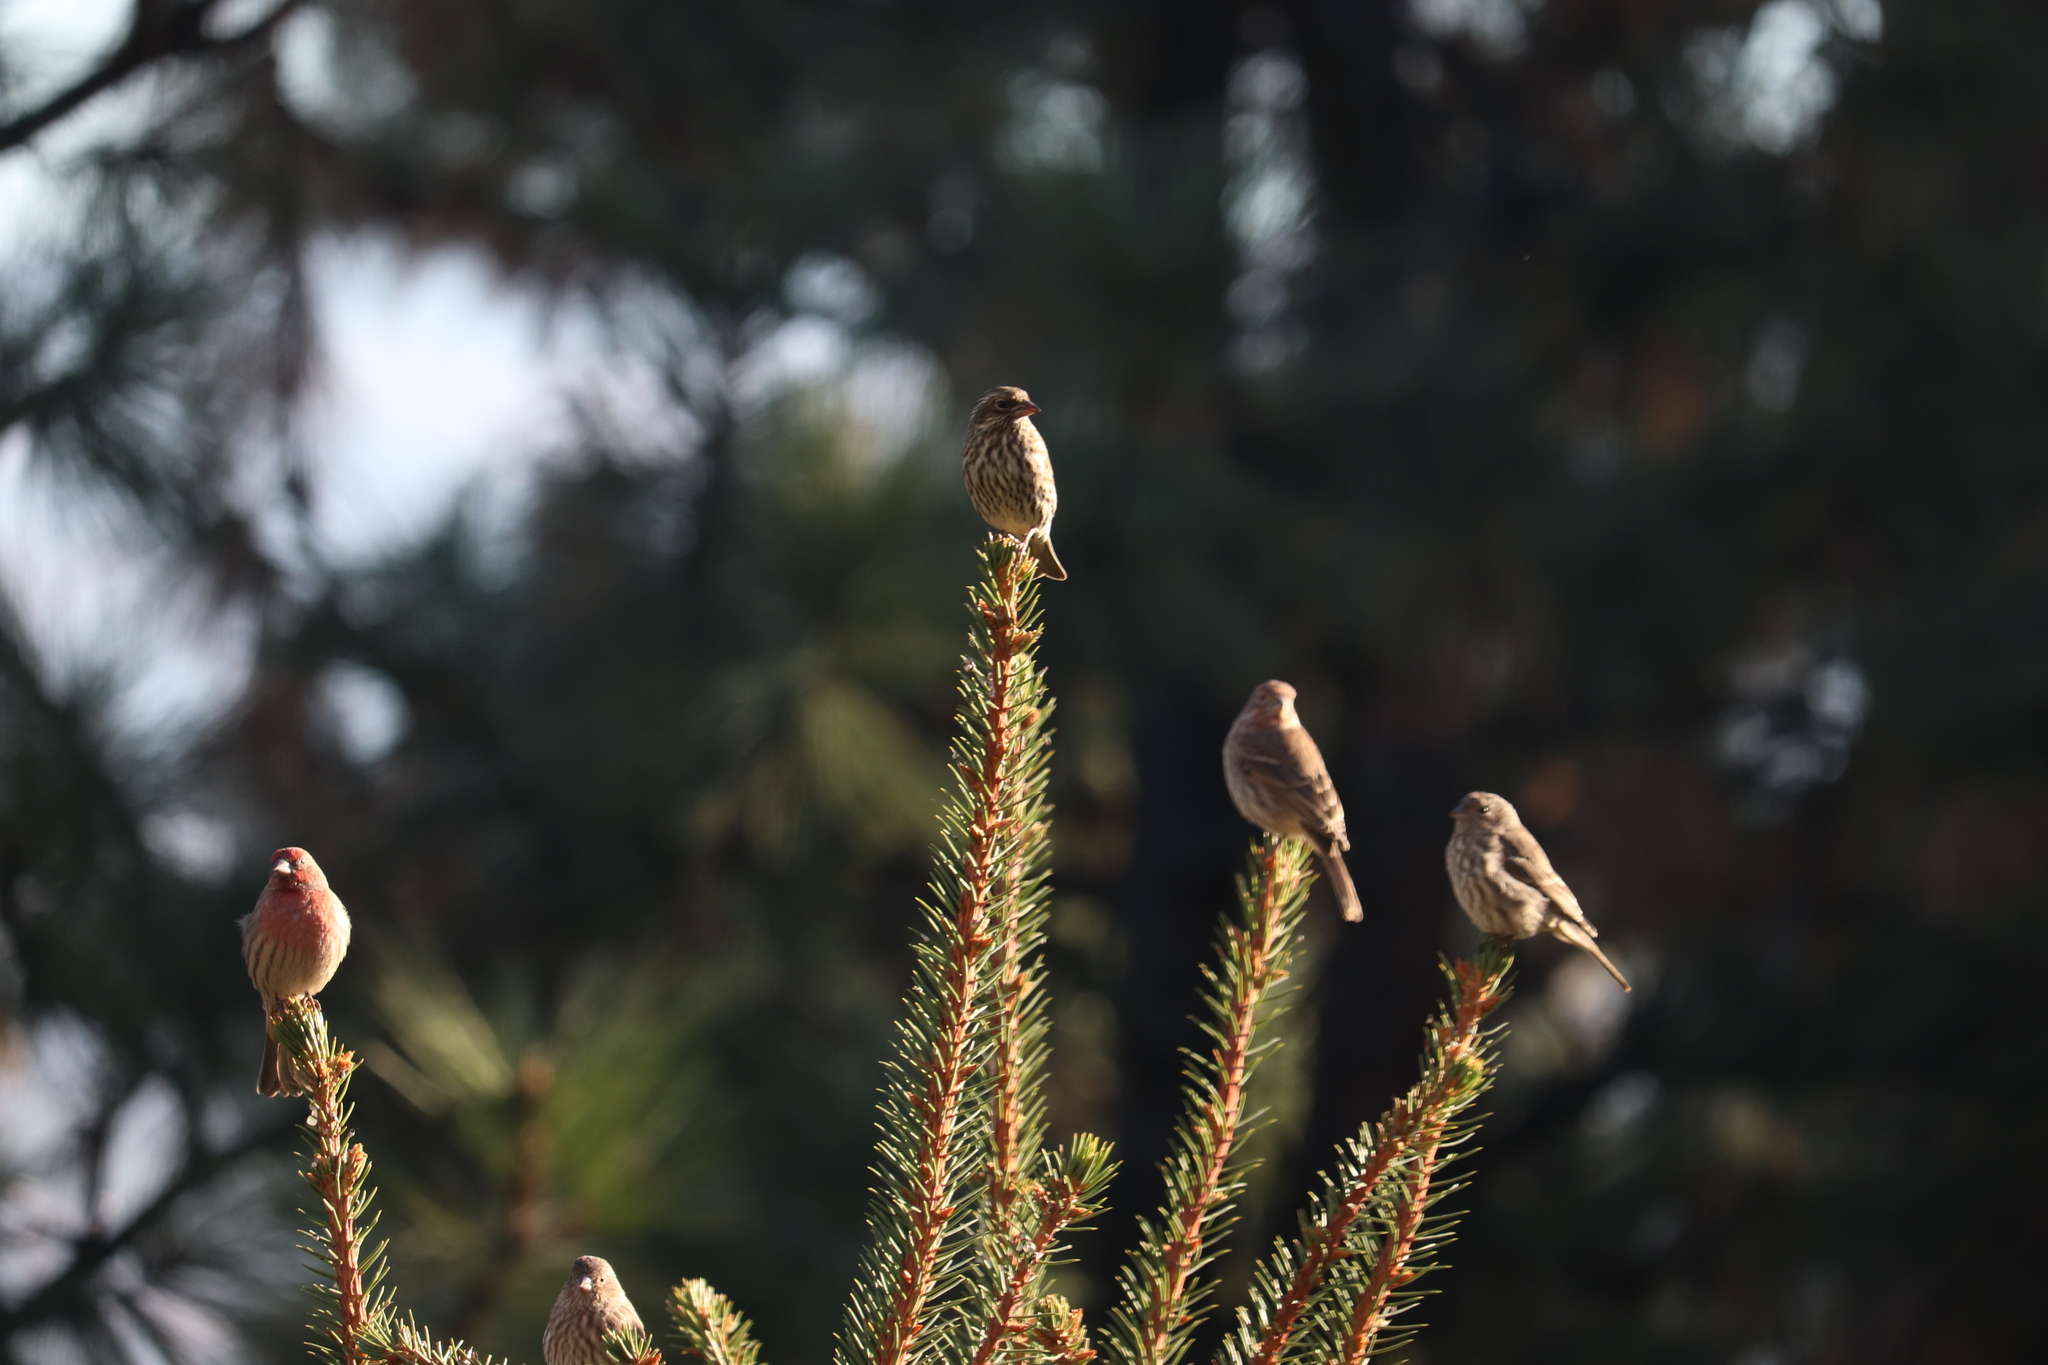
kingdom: Animalia
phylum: Chordata
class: Aves
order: Passeriformes
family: Fringillidae
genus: Haemorhous
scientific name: Haemorhous cassinii
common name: Cassin's finch
